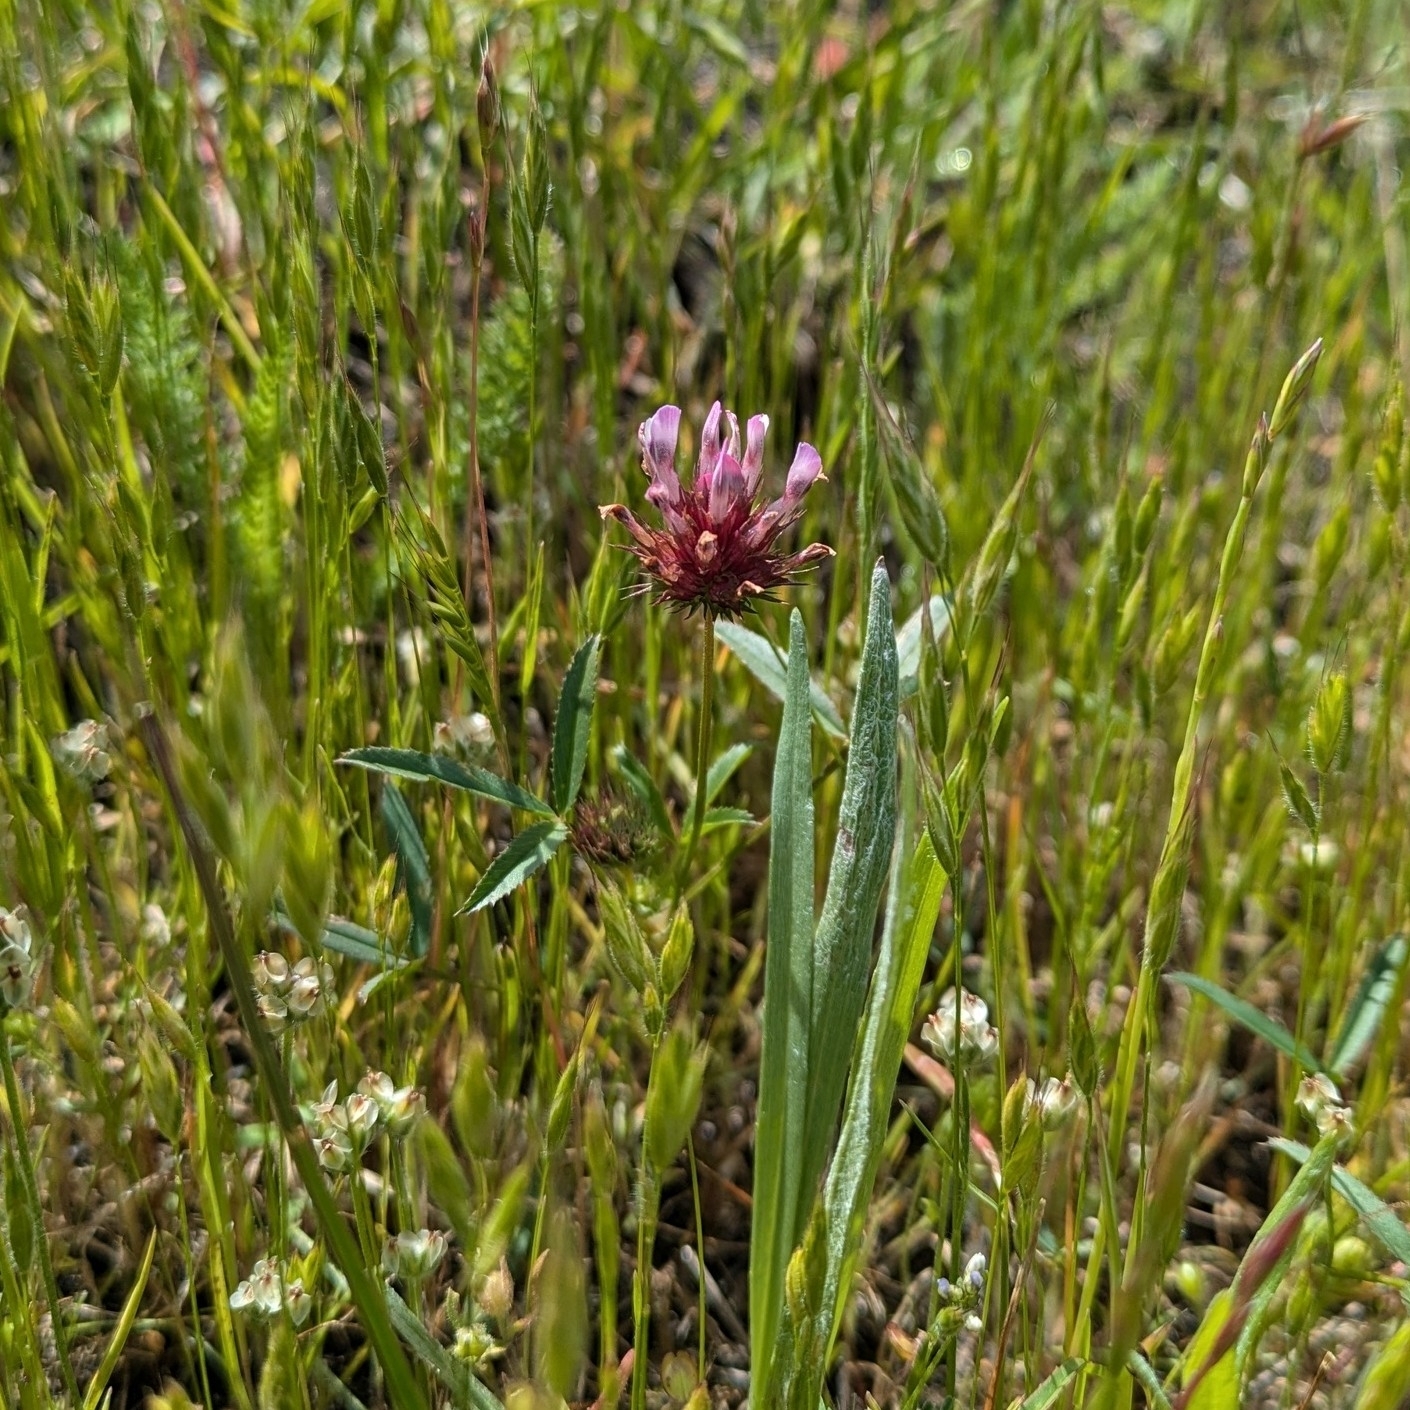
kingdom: Plantae
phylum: Tracheophyta
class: Magnoliopsida
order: Fabales
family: Fabaceae
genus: Trifolium
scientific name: Trifolium willdenovii
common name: Tomcat clover
